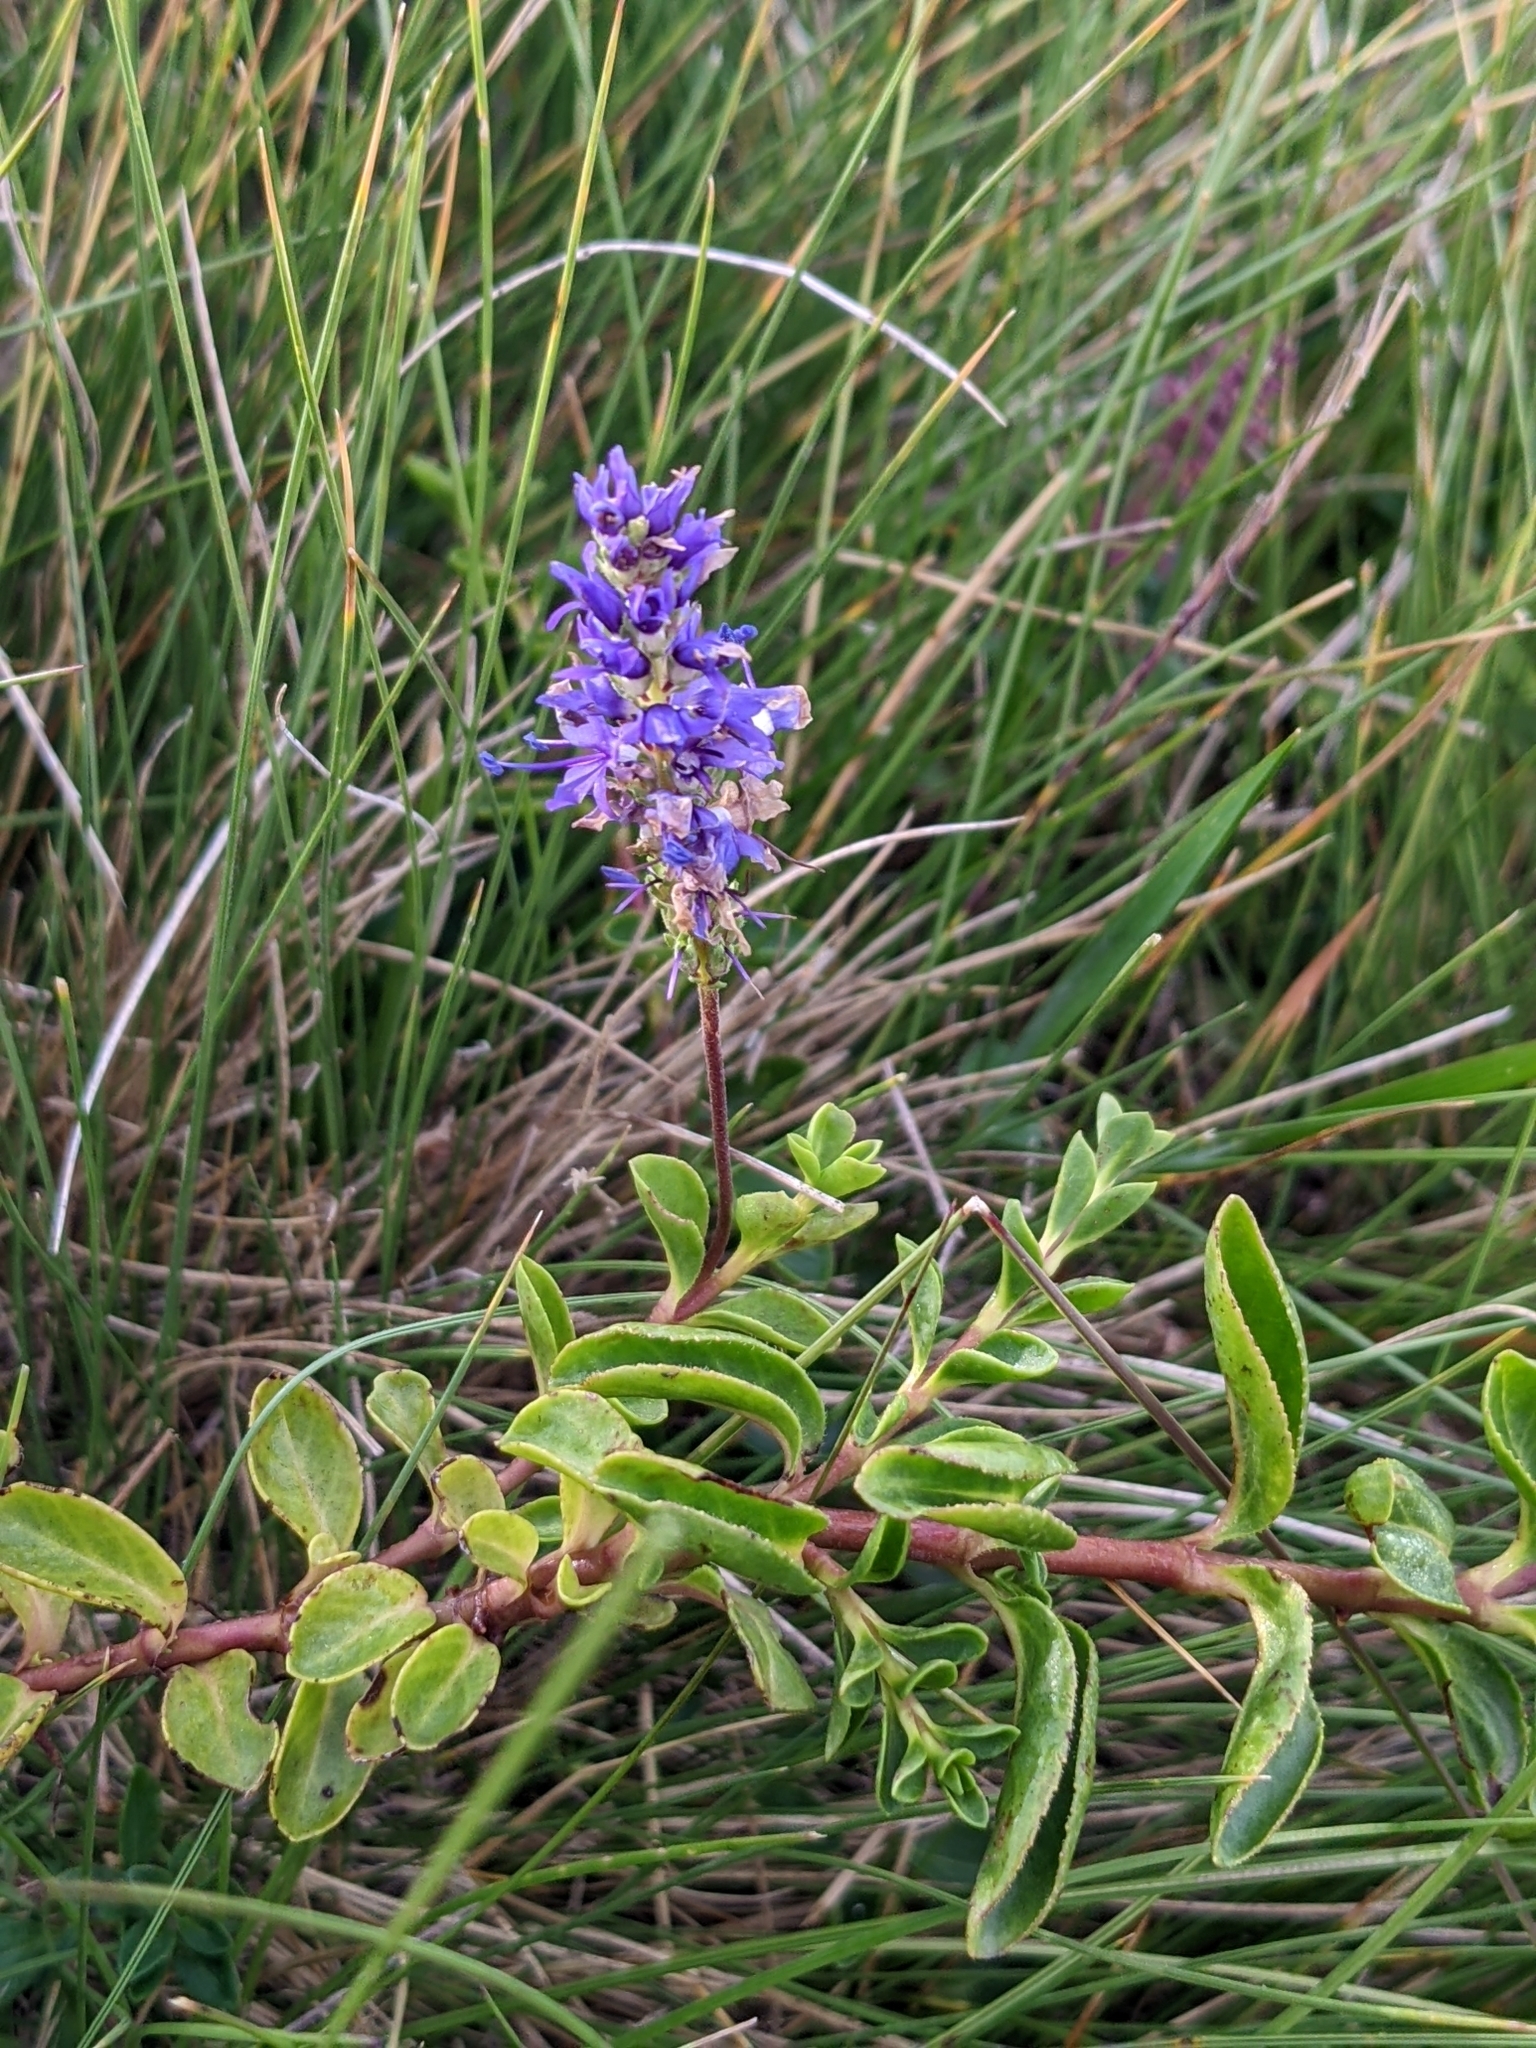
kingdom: Plantae
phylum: Tracheophyta
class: Magnoliopsida
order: Lamiales
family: Plantaginaceae
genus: Veronica
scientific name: Veronica allionii
